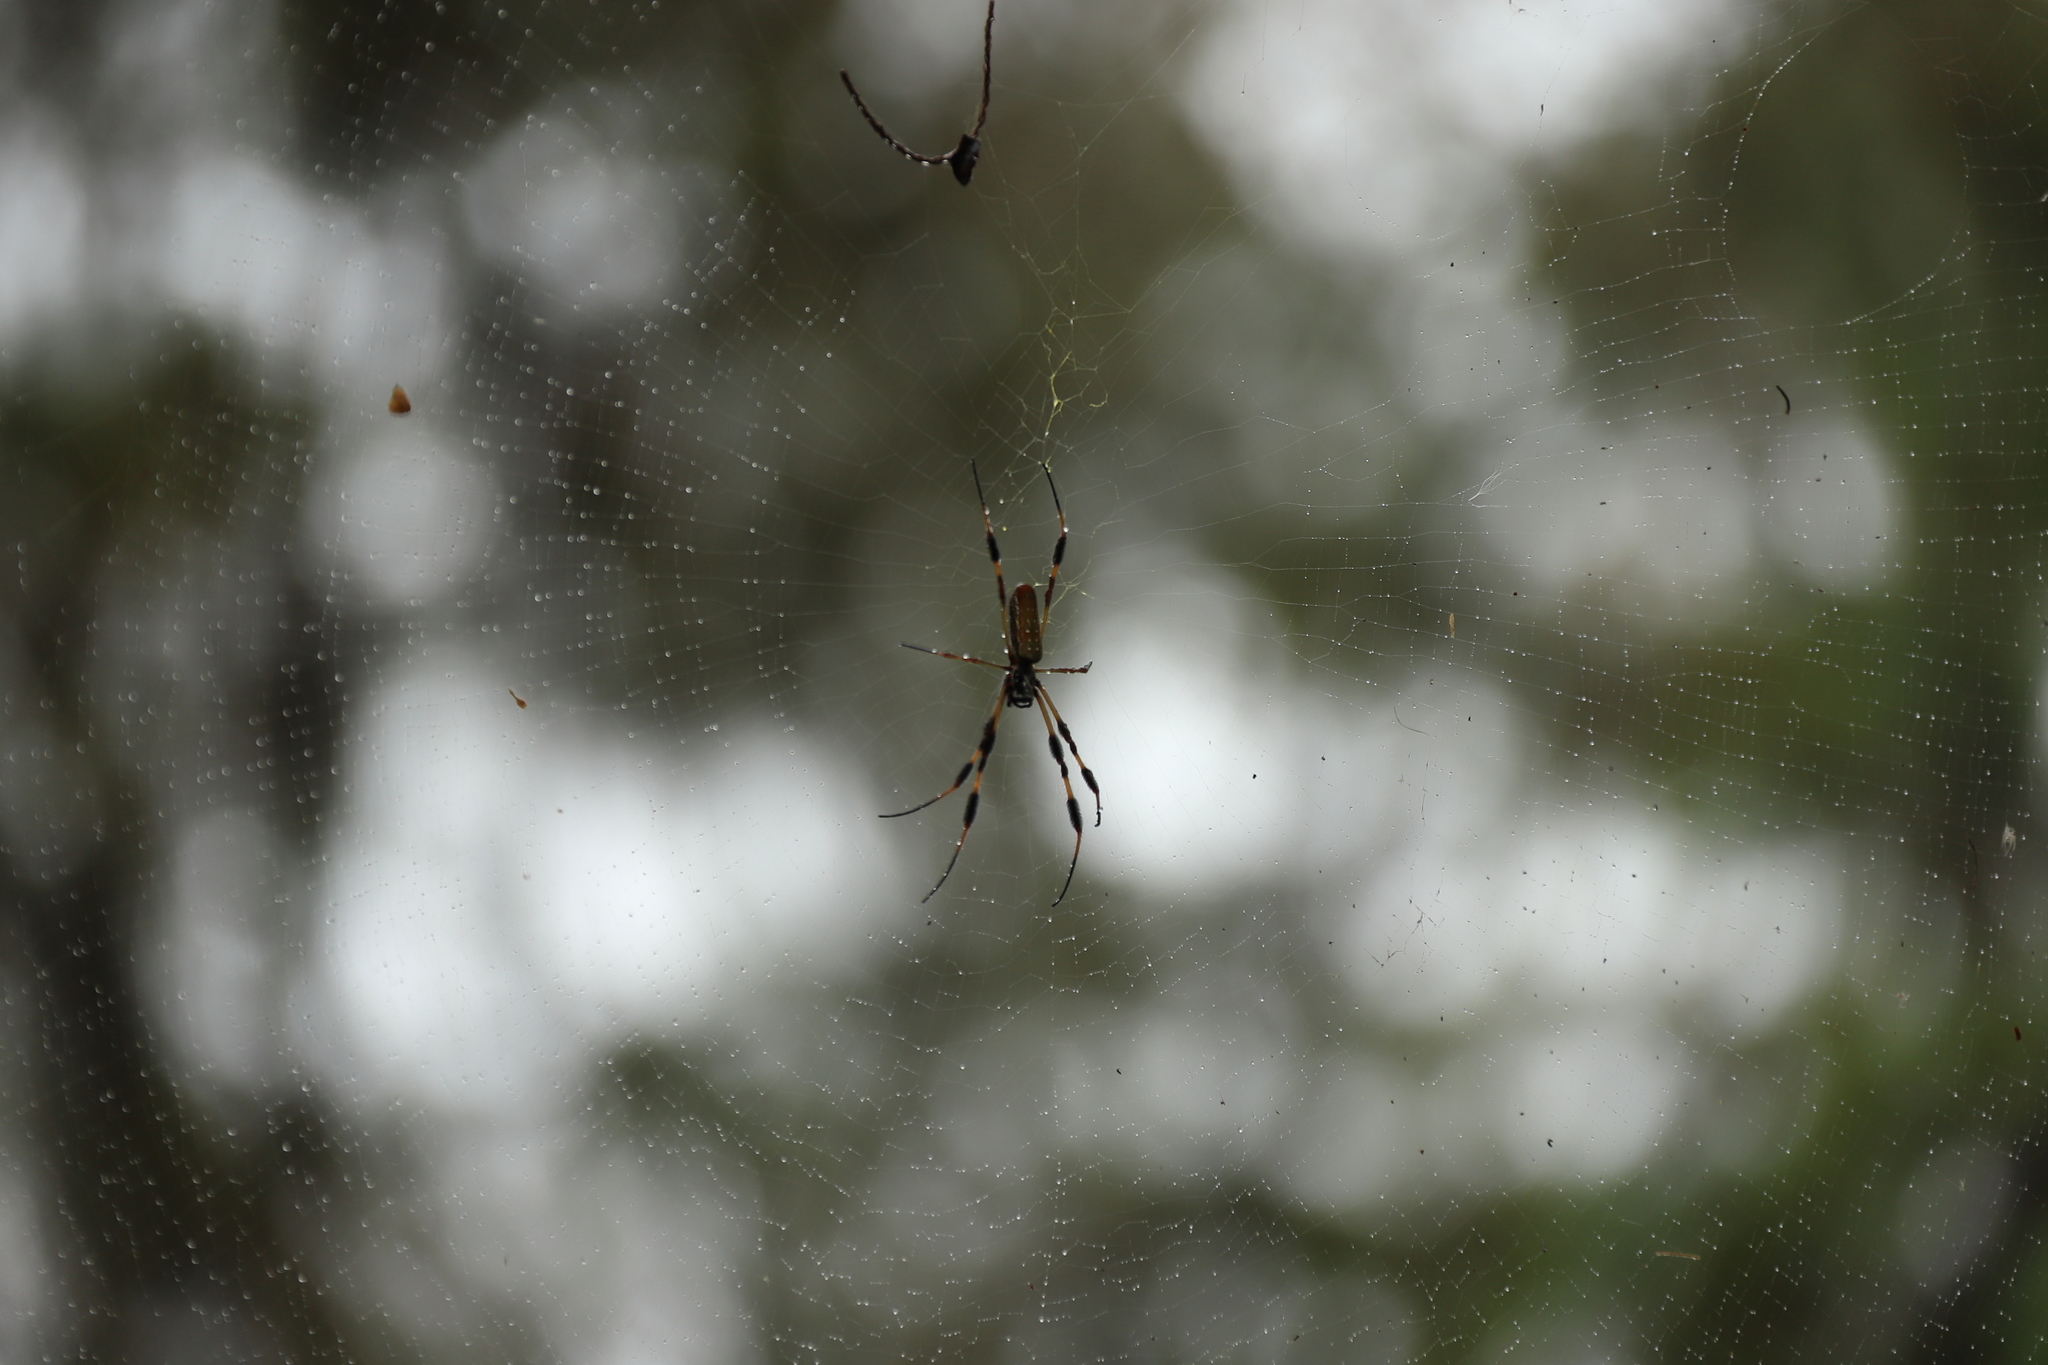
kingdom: Animalia
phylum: Arthropoda
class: Arachnida
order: Araneae
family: Araneidae
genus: Trichonephila
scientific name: Trichonephila clavipes
